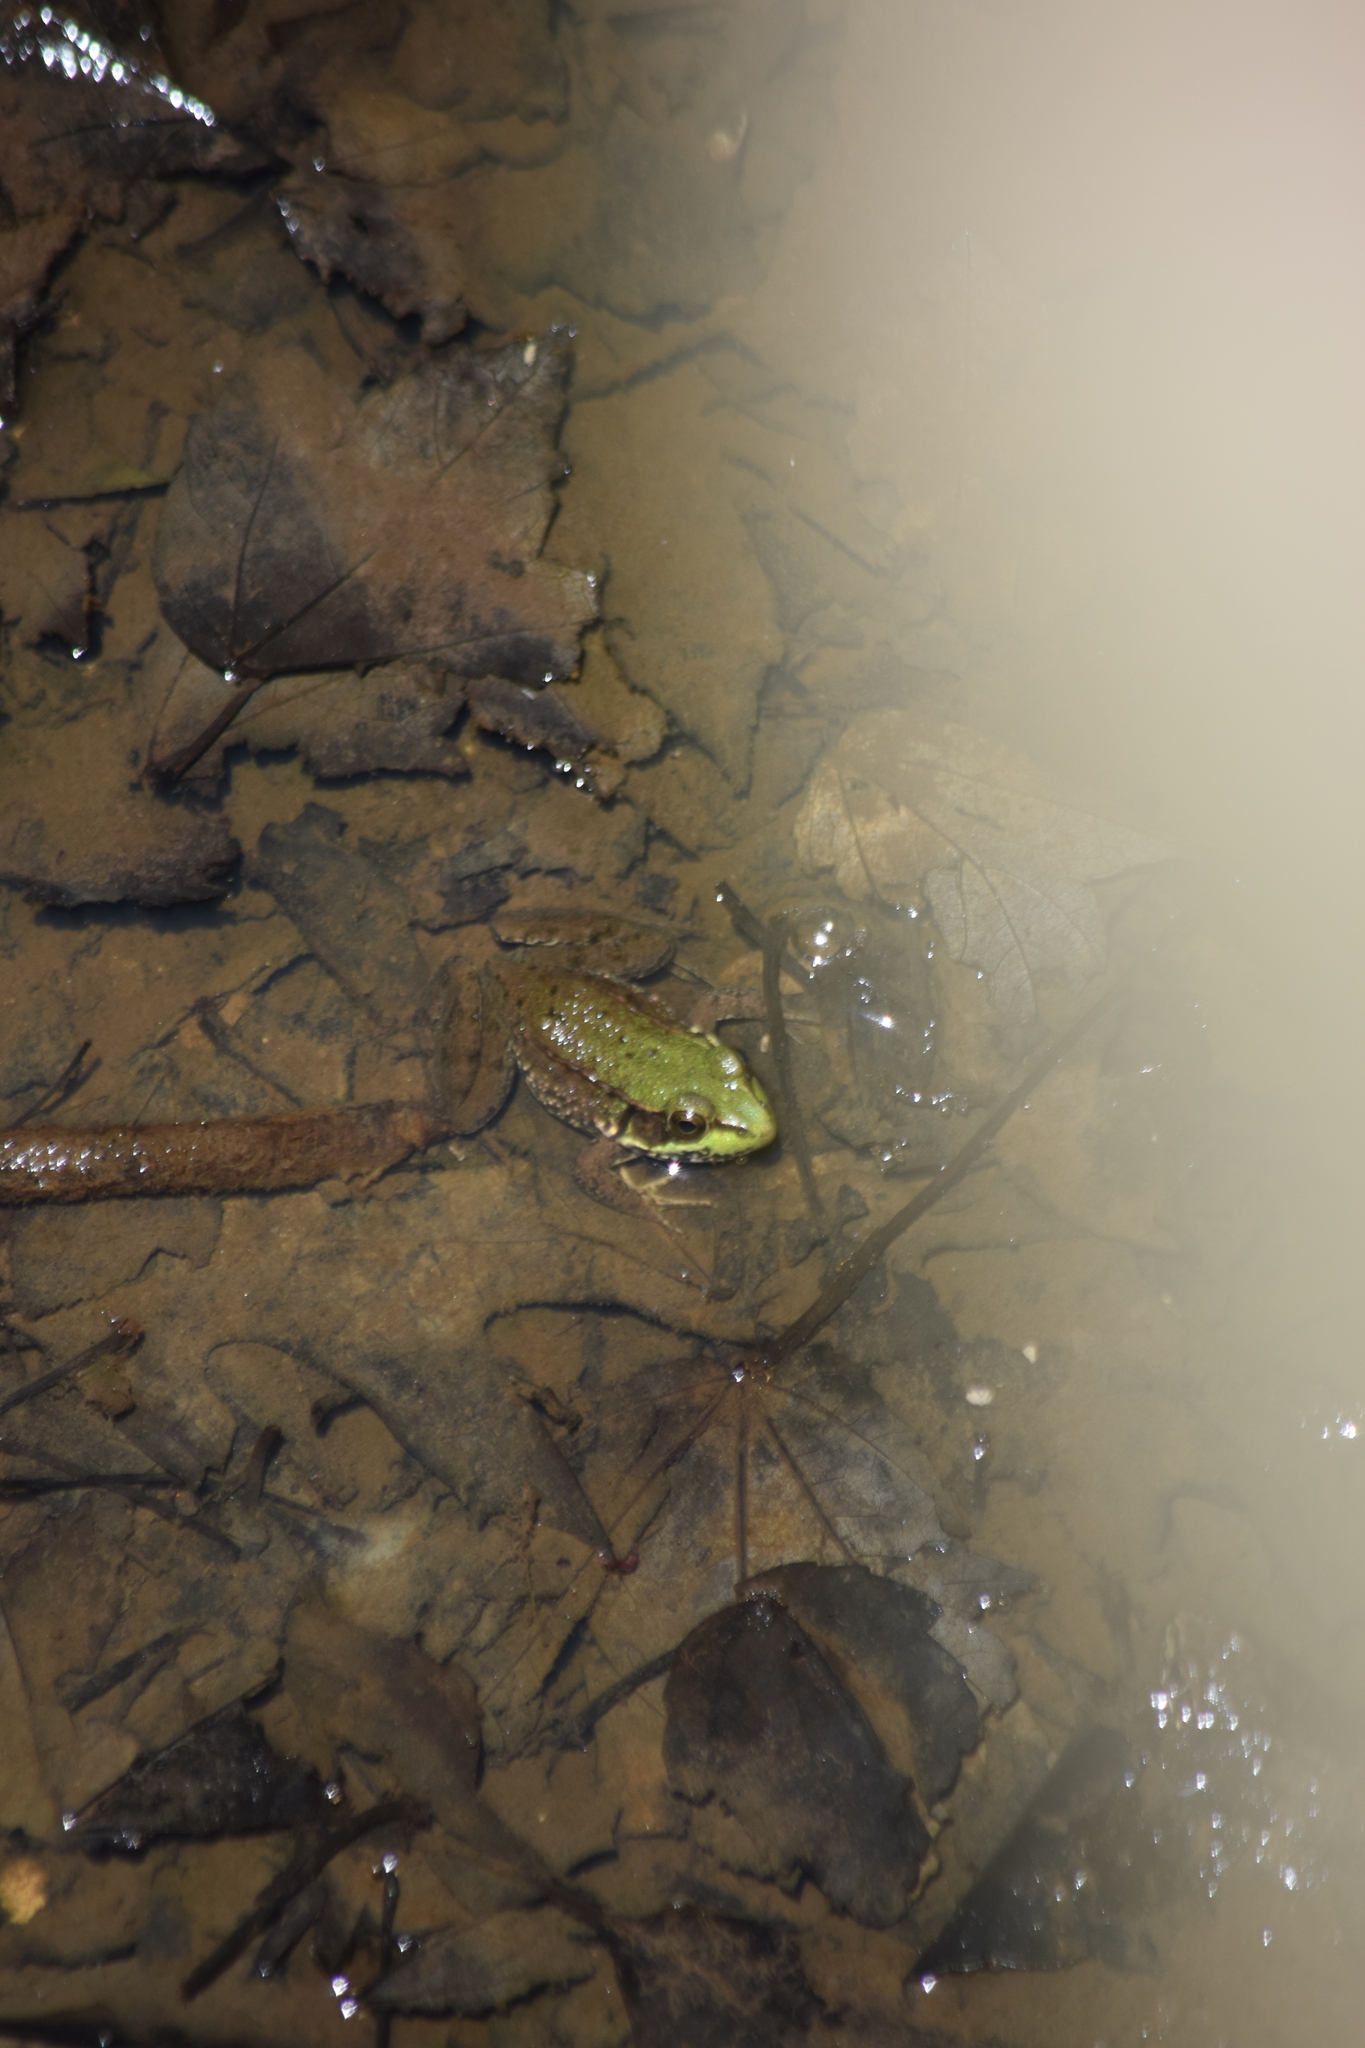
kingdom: Animalia
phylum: Chordata
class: Amphibia
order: Anura
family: Ranidae
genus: Lithobates
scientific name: Lithobates clamitans
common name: Green frog
